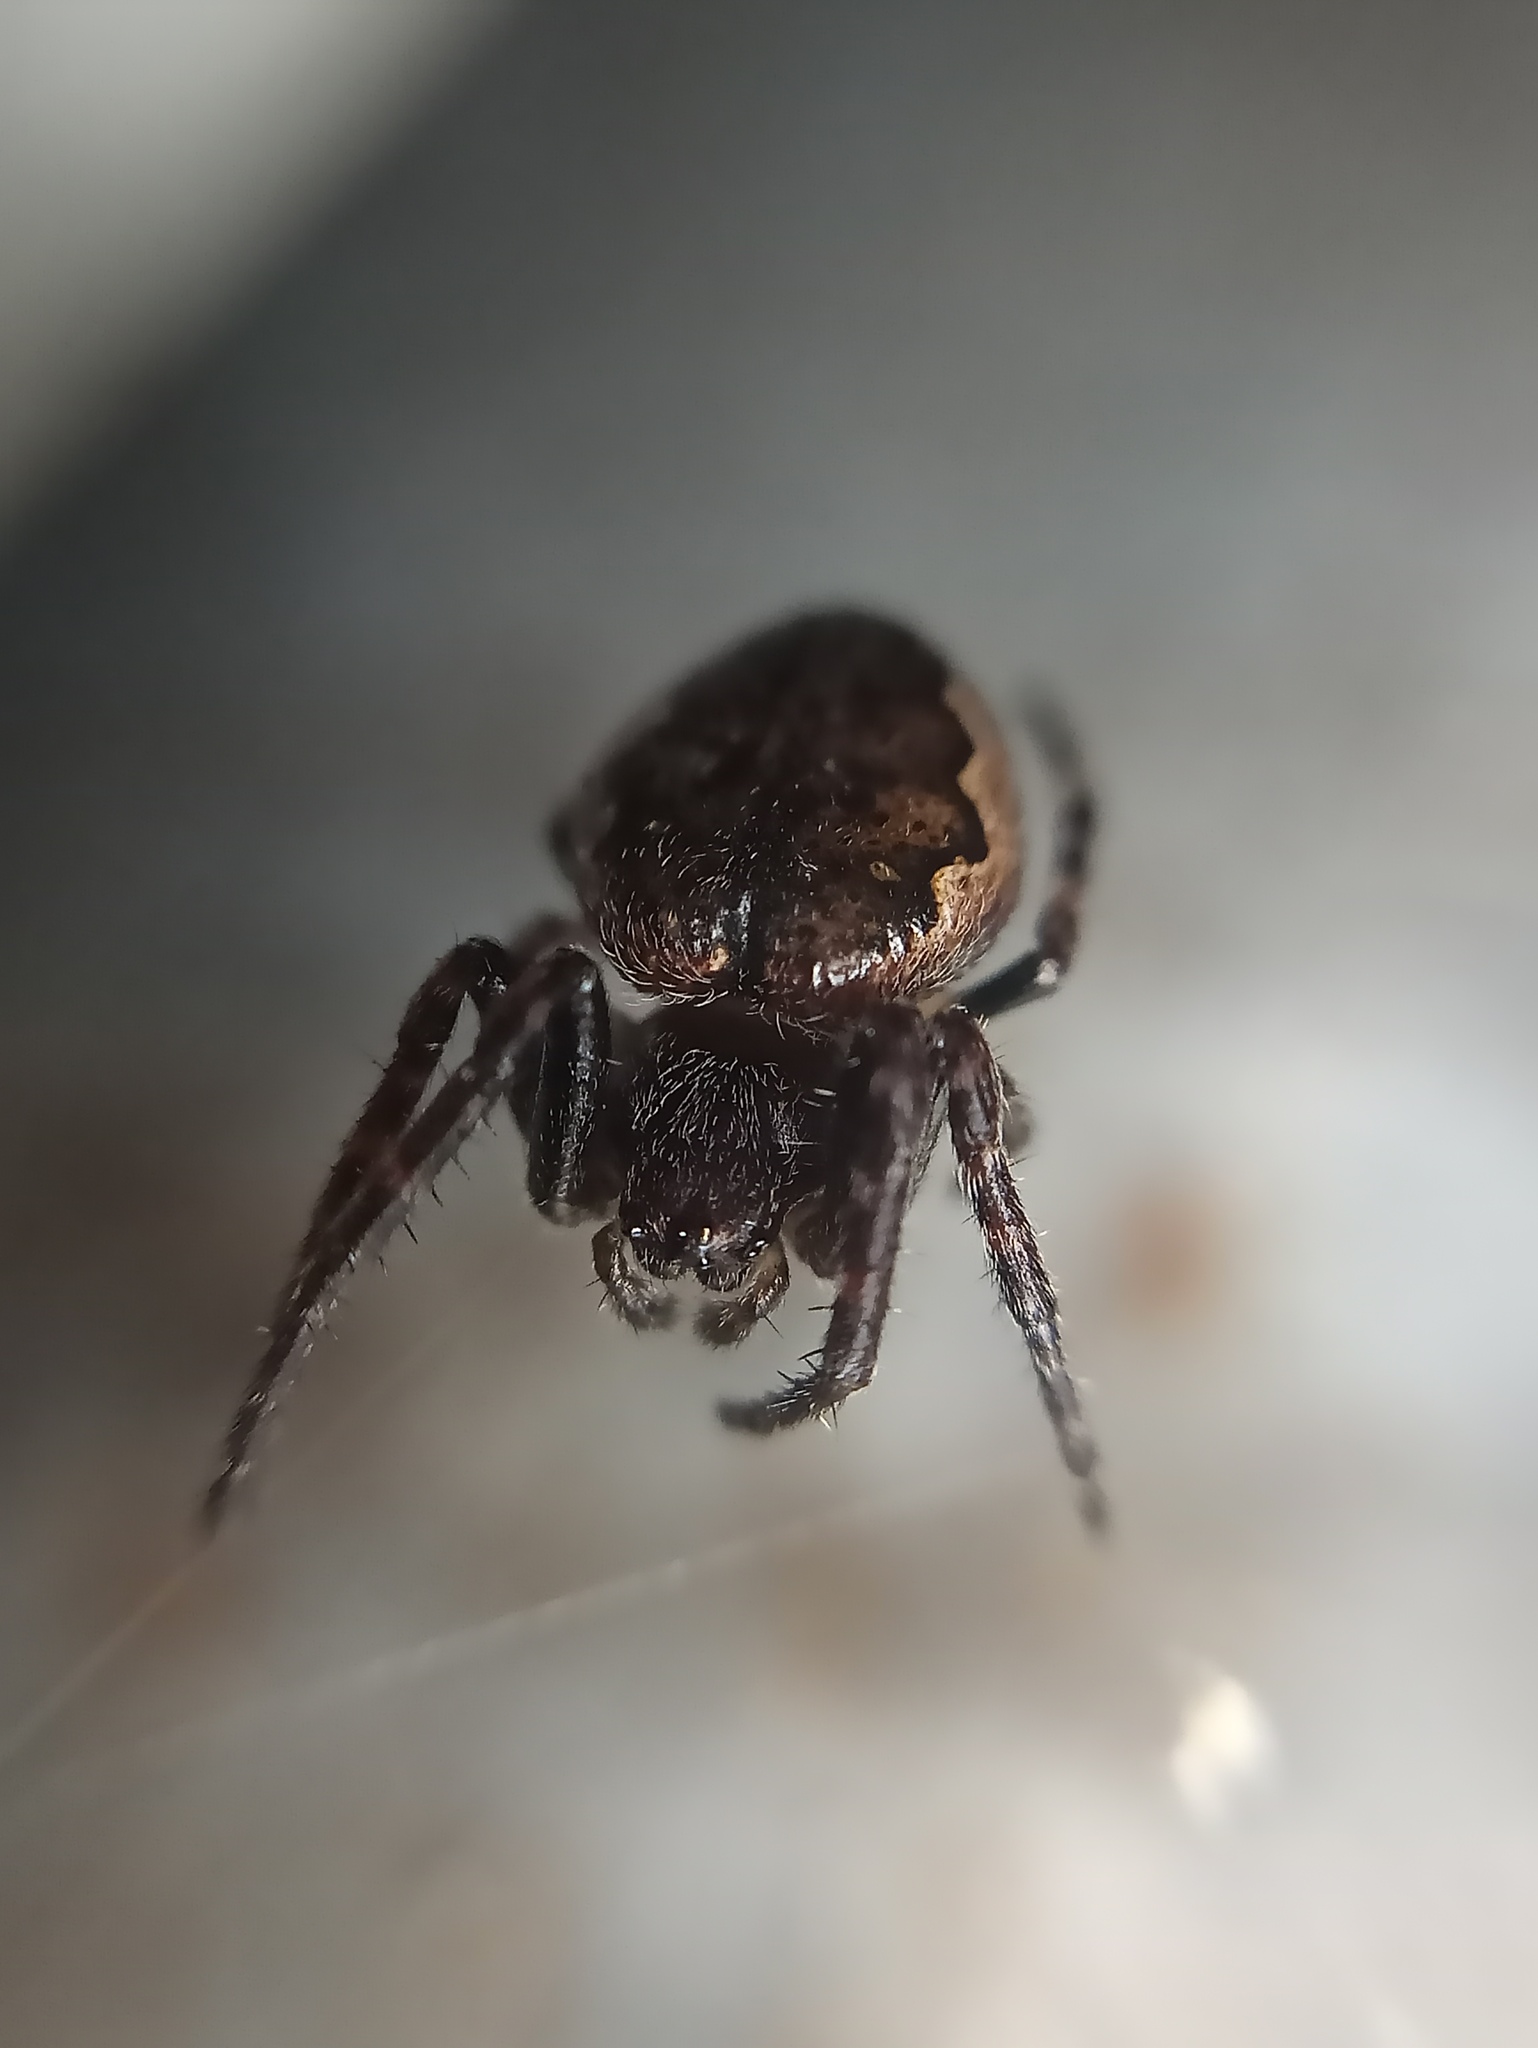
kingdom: Animalia
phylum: Arthropoda
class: Arachnida
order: Araneae
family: Araneidae
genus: Nuctenea
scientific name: Nuctenea umbratica
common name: Toad spider
